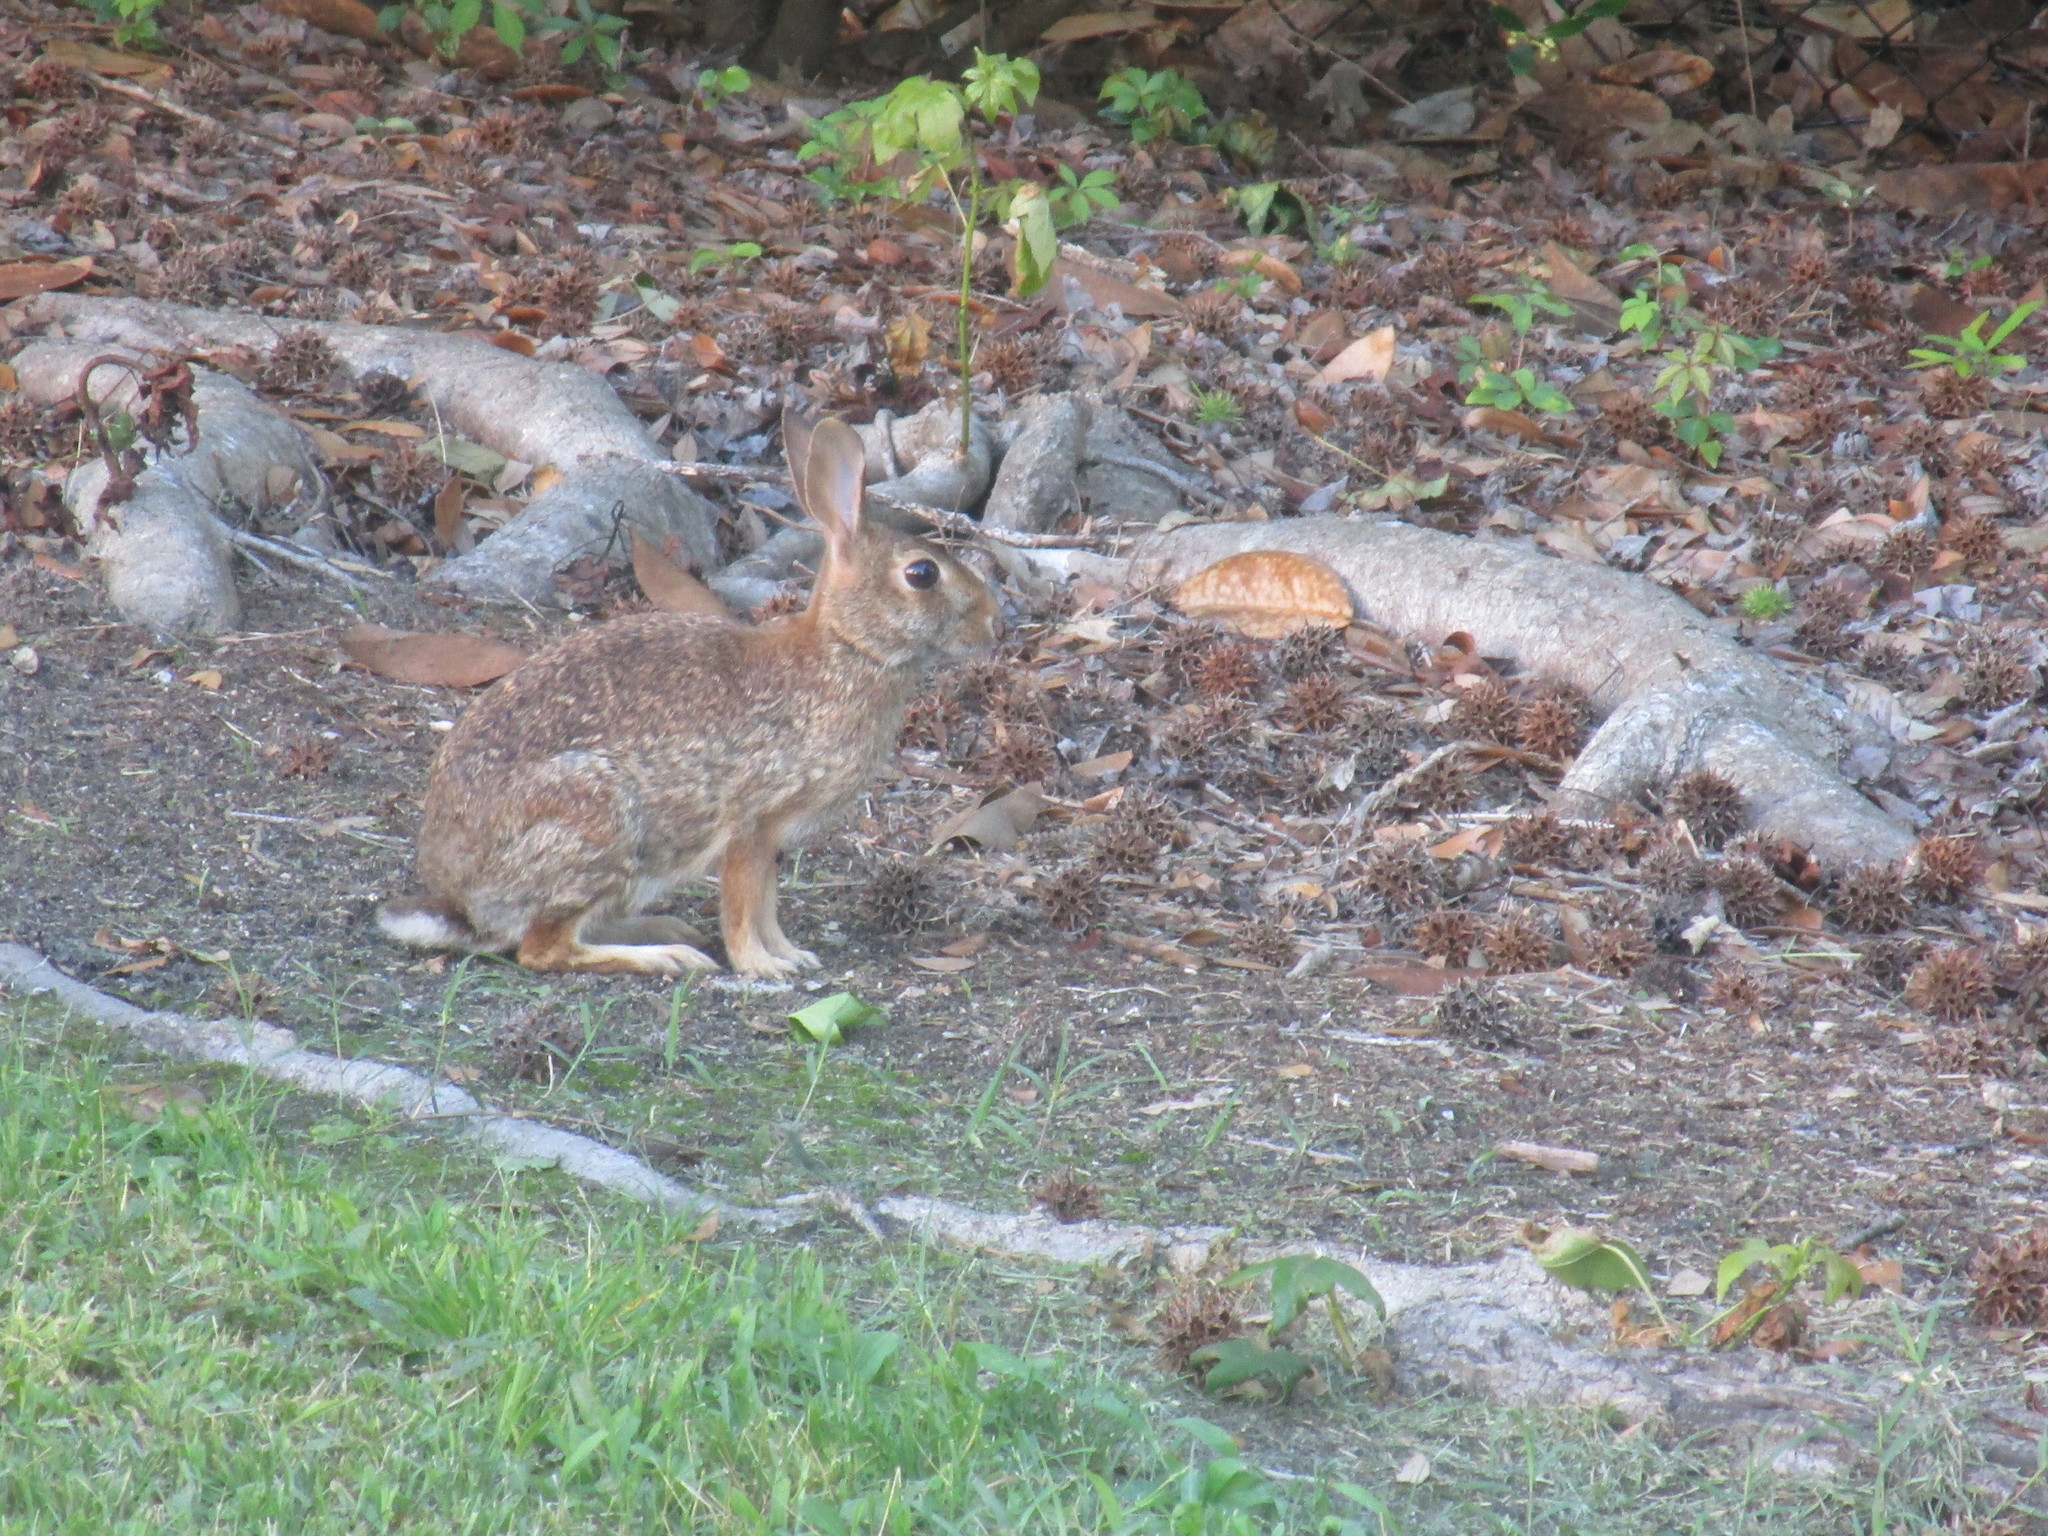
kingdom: Animalia
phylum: Chordata
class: Mammalia
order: Lagomorpha
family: Leporidae
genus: Sylvilagus
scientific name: Sylvilagus floridanus
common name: Eastern cottontail
